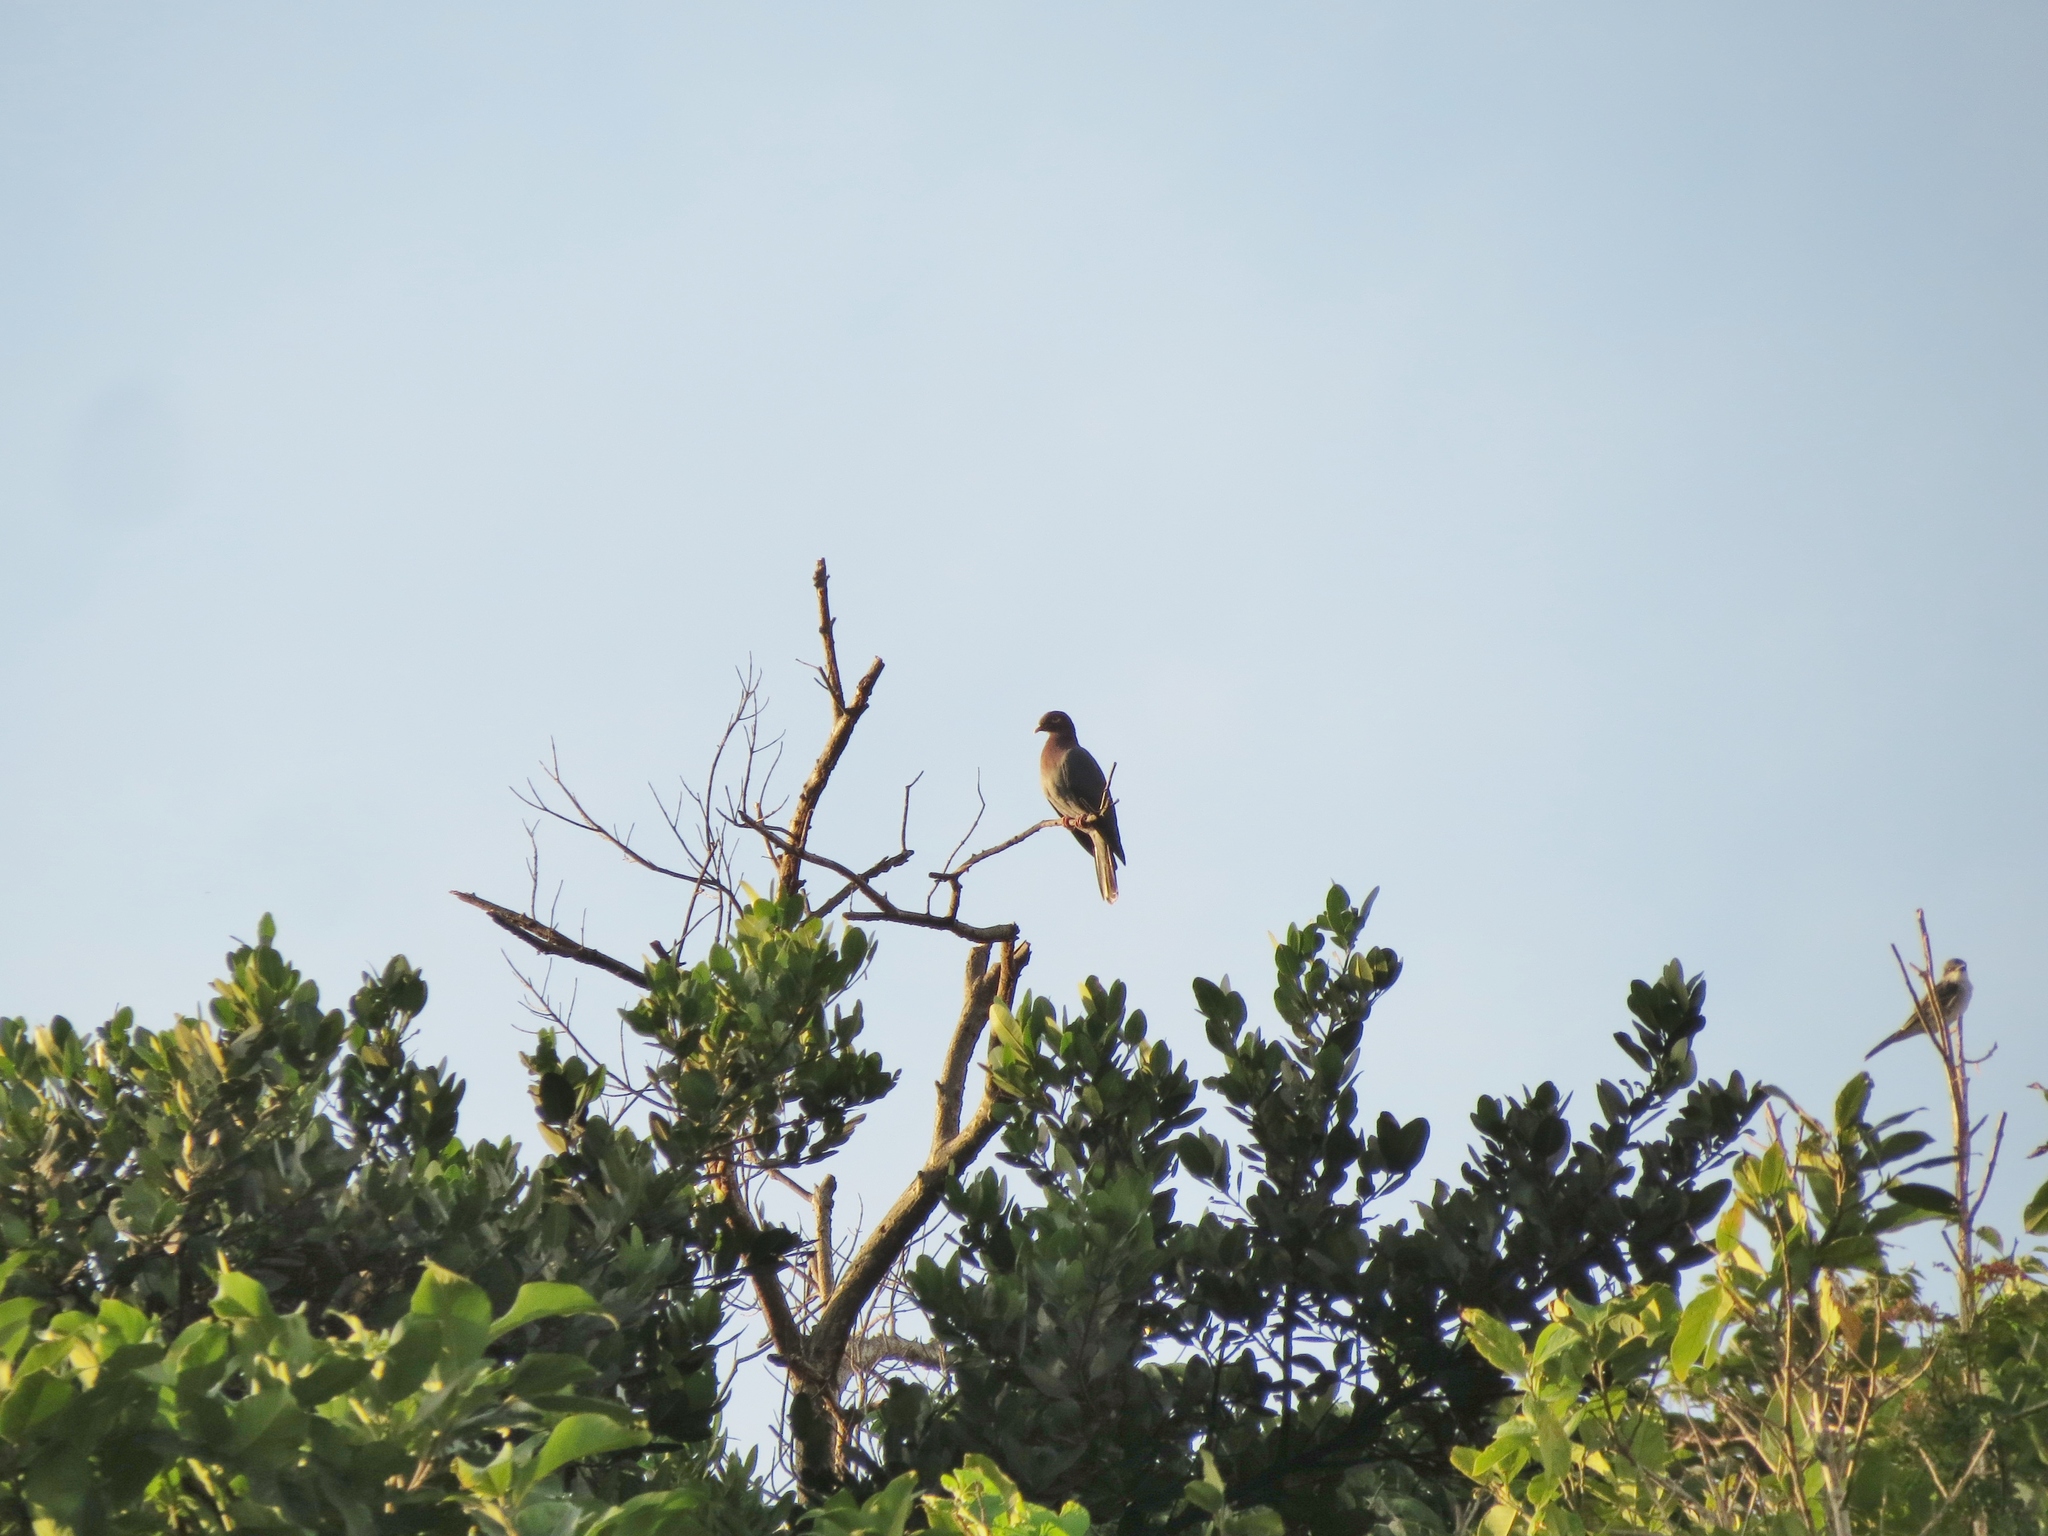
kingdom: Animalia
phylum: Chordata
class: Aves
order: Columbiformes
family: Columbidae
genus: Patagioenas
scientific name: Patagioenas squamosa
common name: Scaly-naped pigeon
